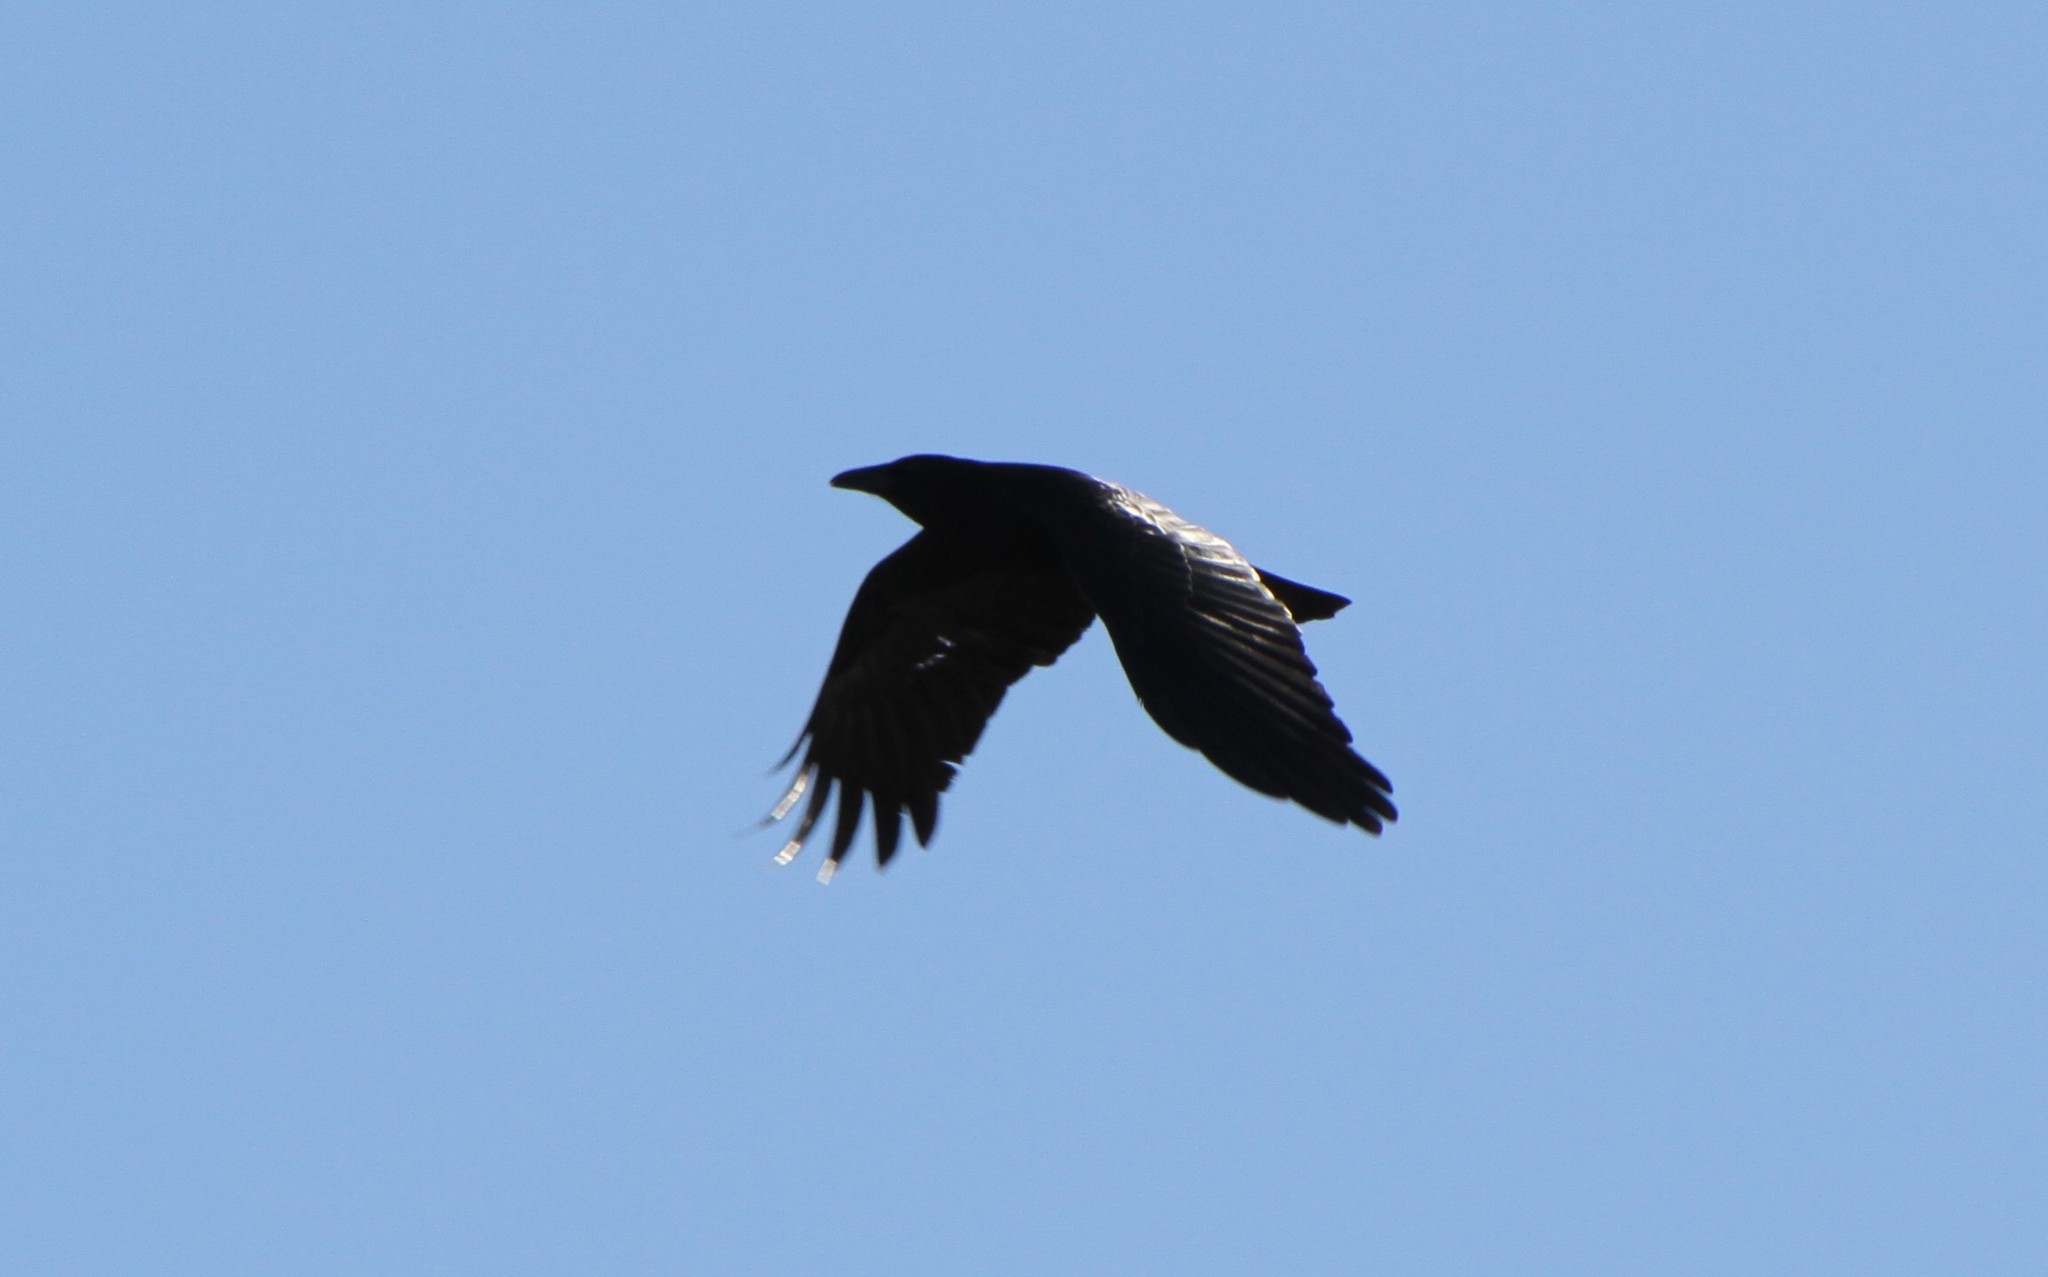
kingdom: Animalia
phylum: Chordata
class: Aves
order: Passeriformes
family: Corvidae
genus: Corvus
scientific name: Corvus brachyrhynchos
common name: American crow
